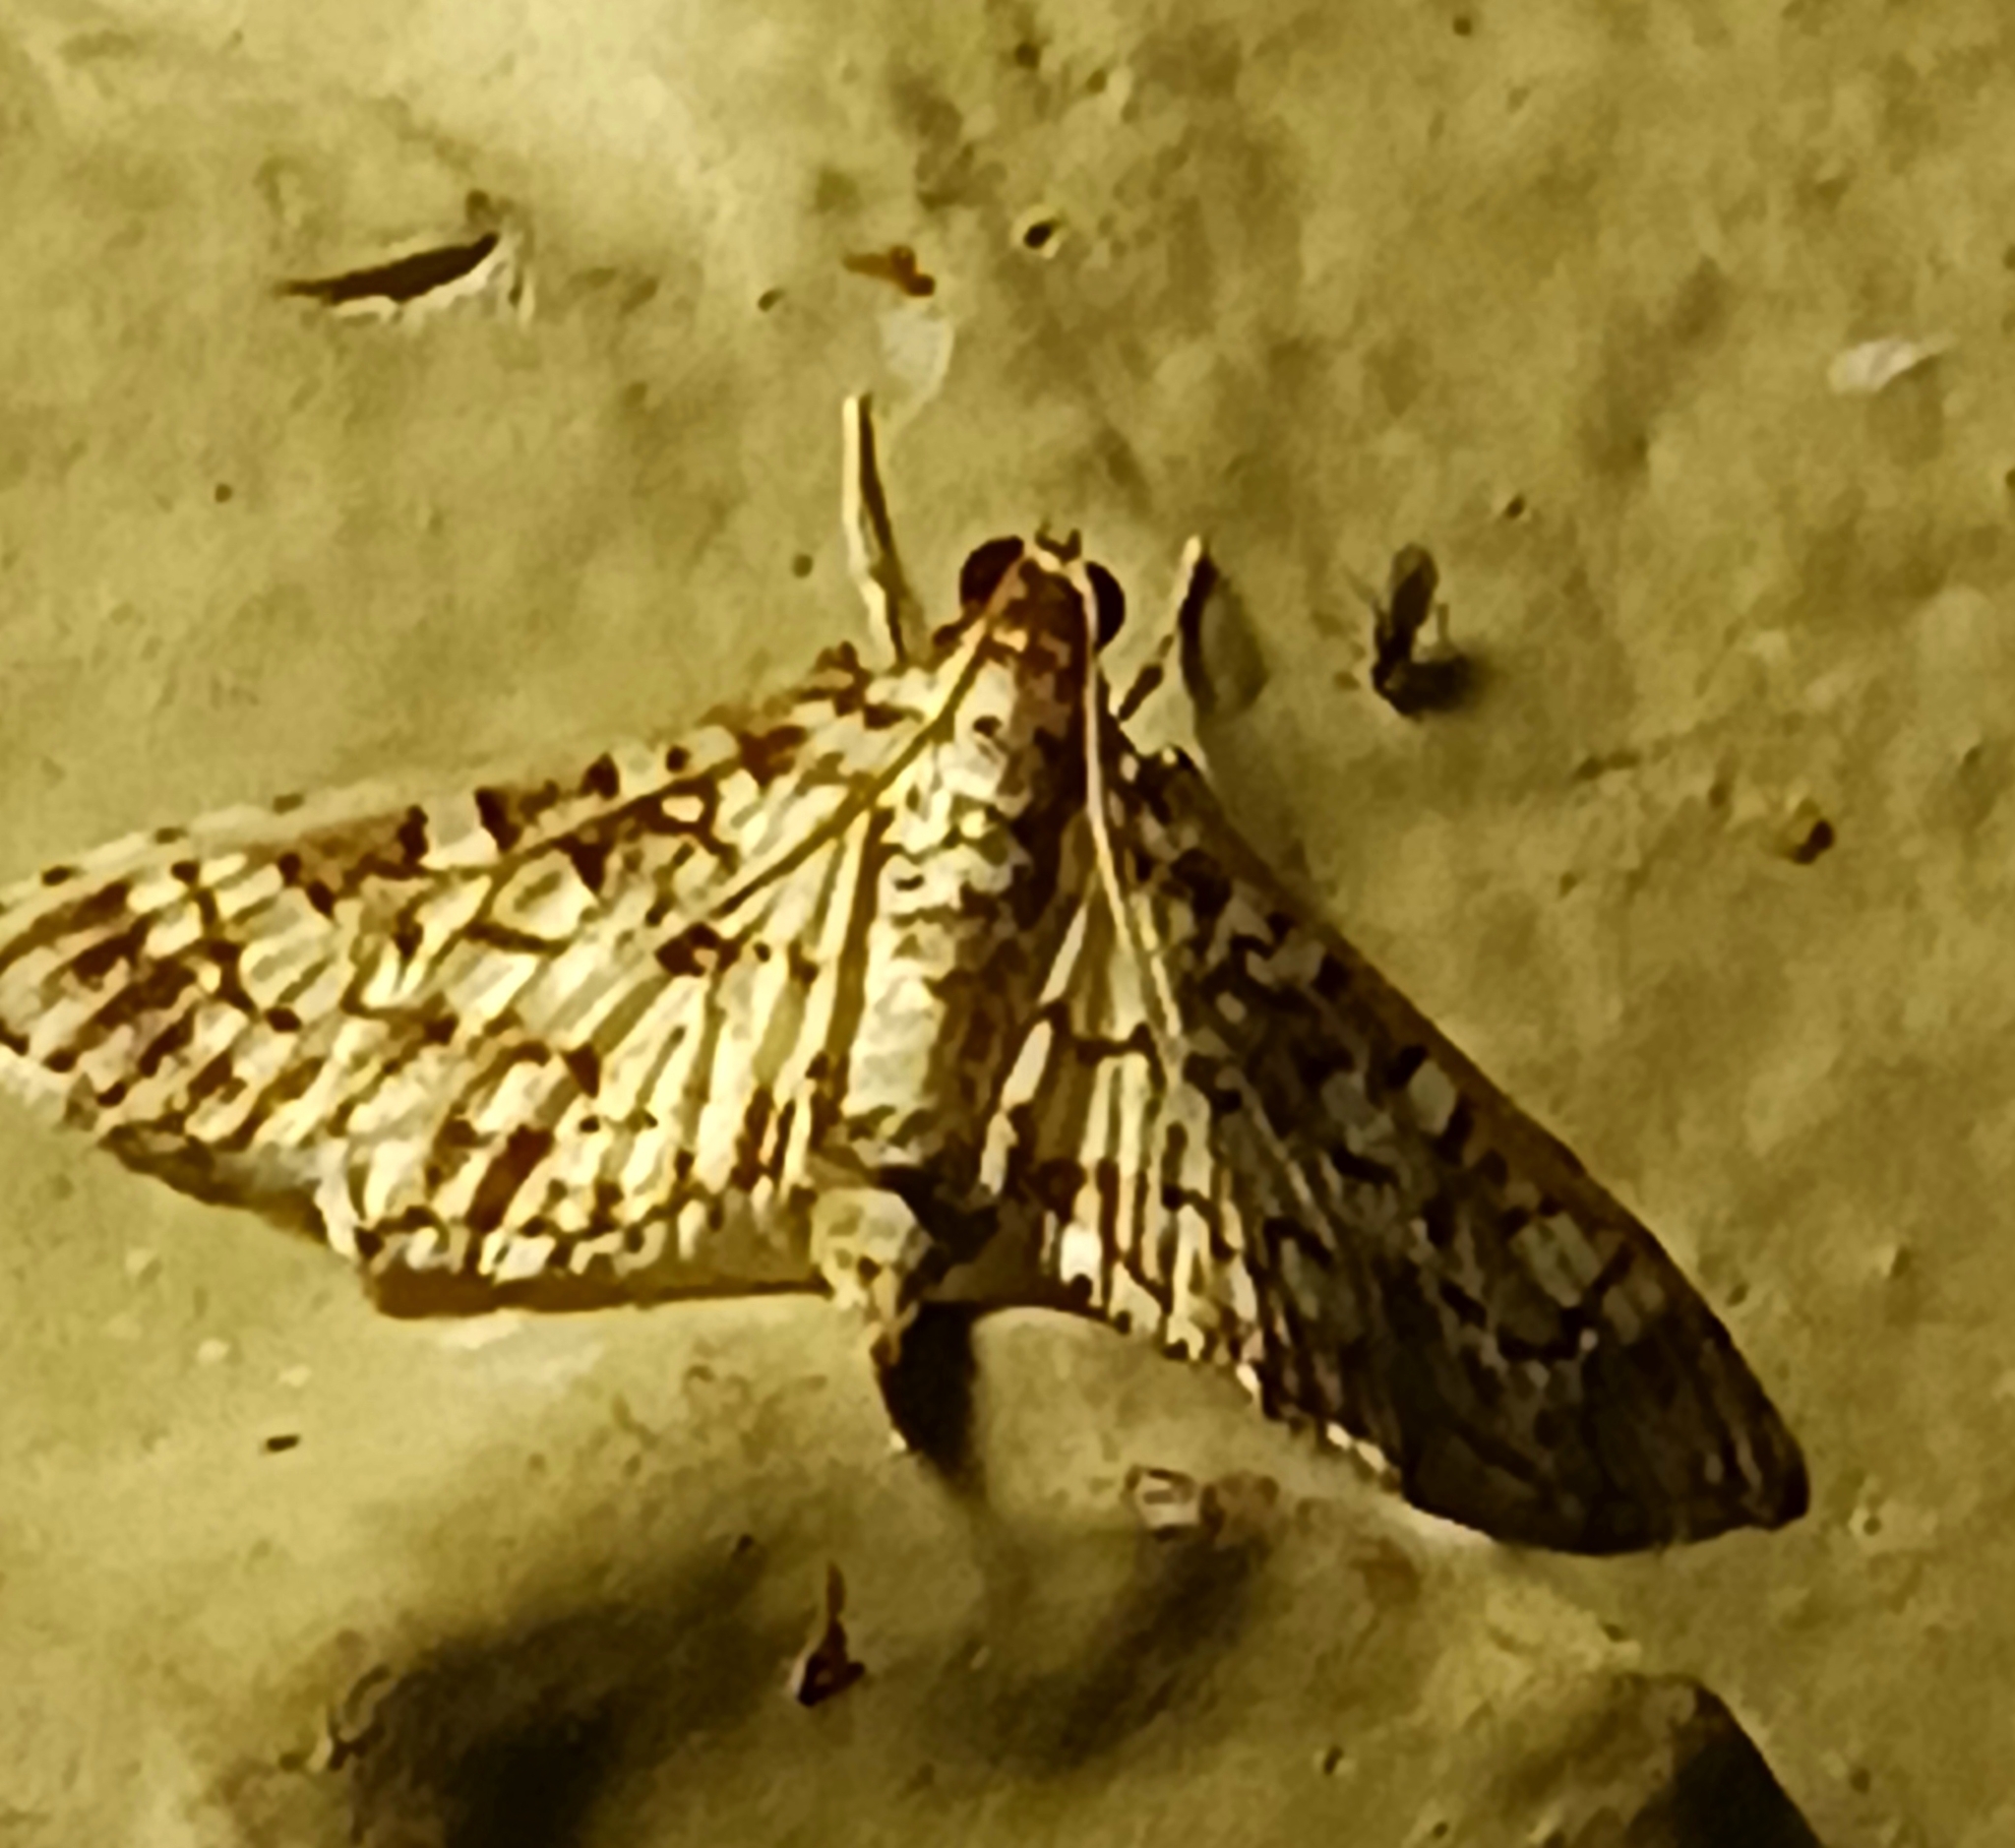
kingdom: Animalia
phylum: Arthropoda
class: Insecta
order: Lepidoptera
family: Crambidae
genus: Samea
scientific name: Samea ecclesialis
